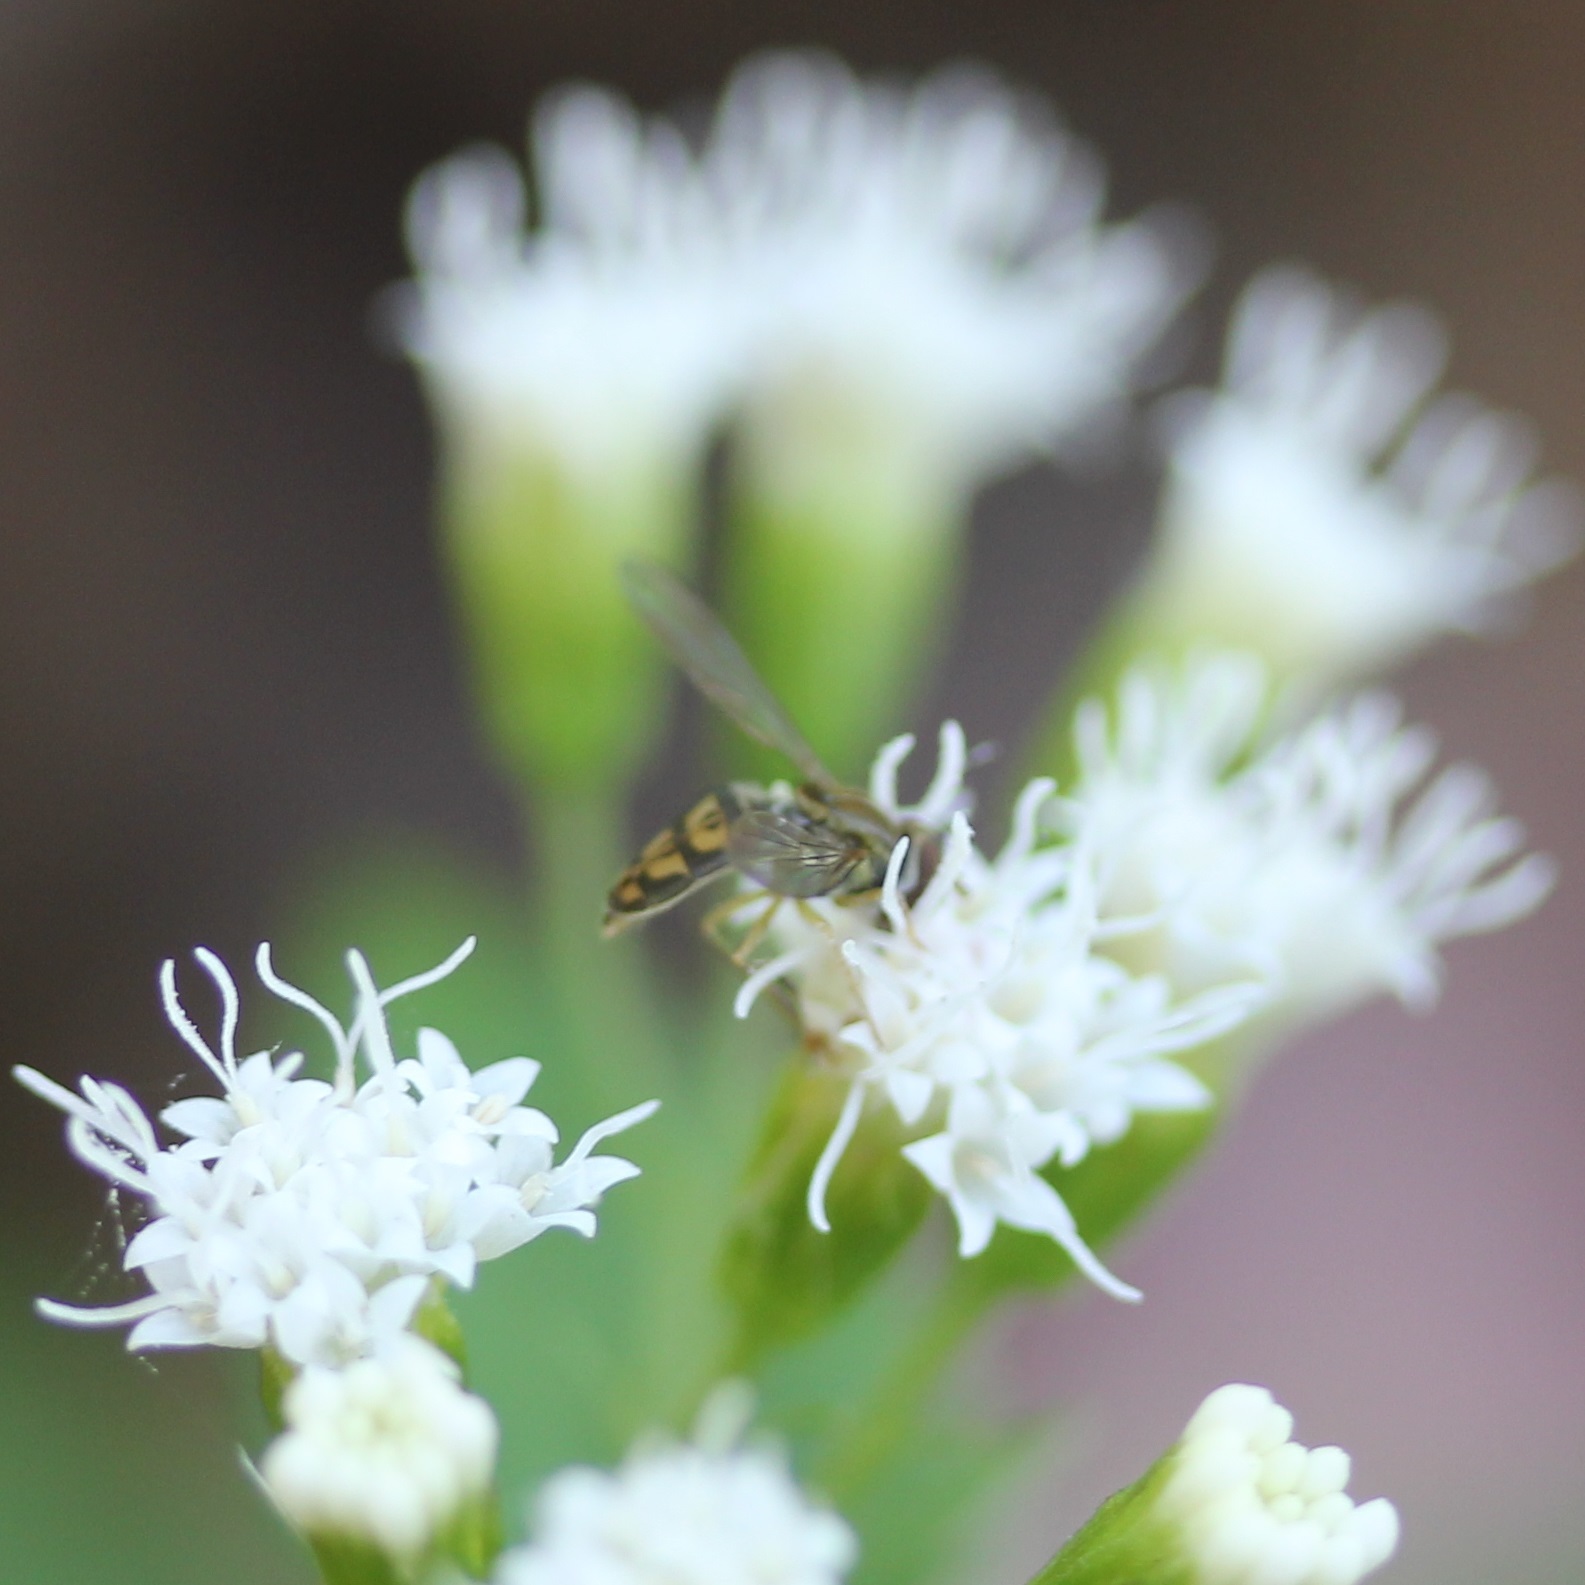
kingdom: Animalia
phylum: Arthropoda
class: Insecta
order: Diptera
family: Syrphidae
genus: Toxomerus
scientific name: Toxomerus marginatus
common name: Syrphid fly
